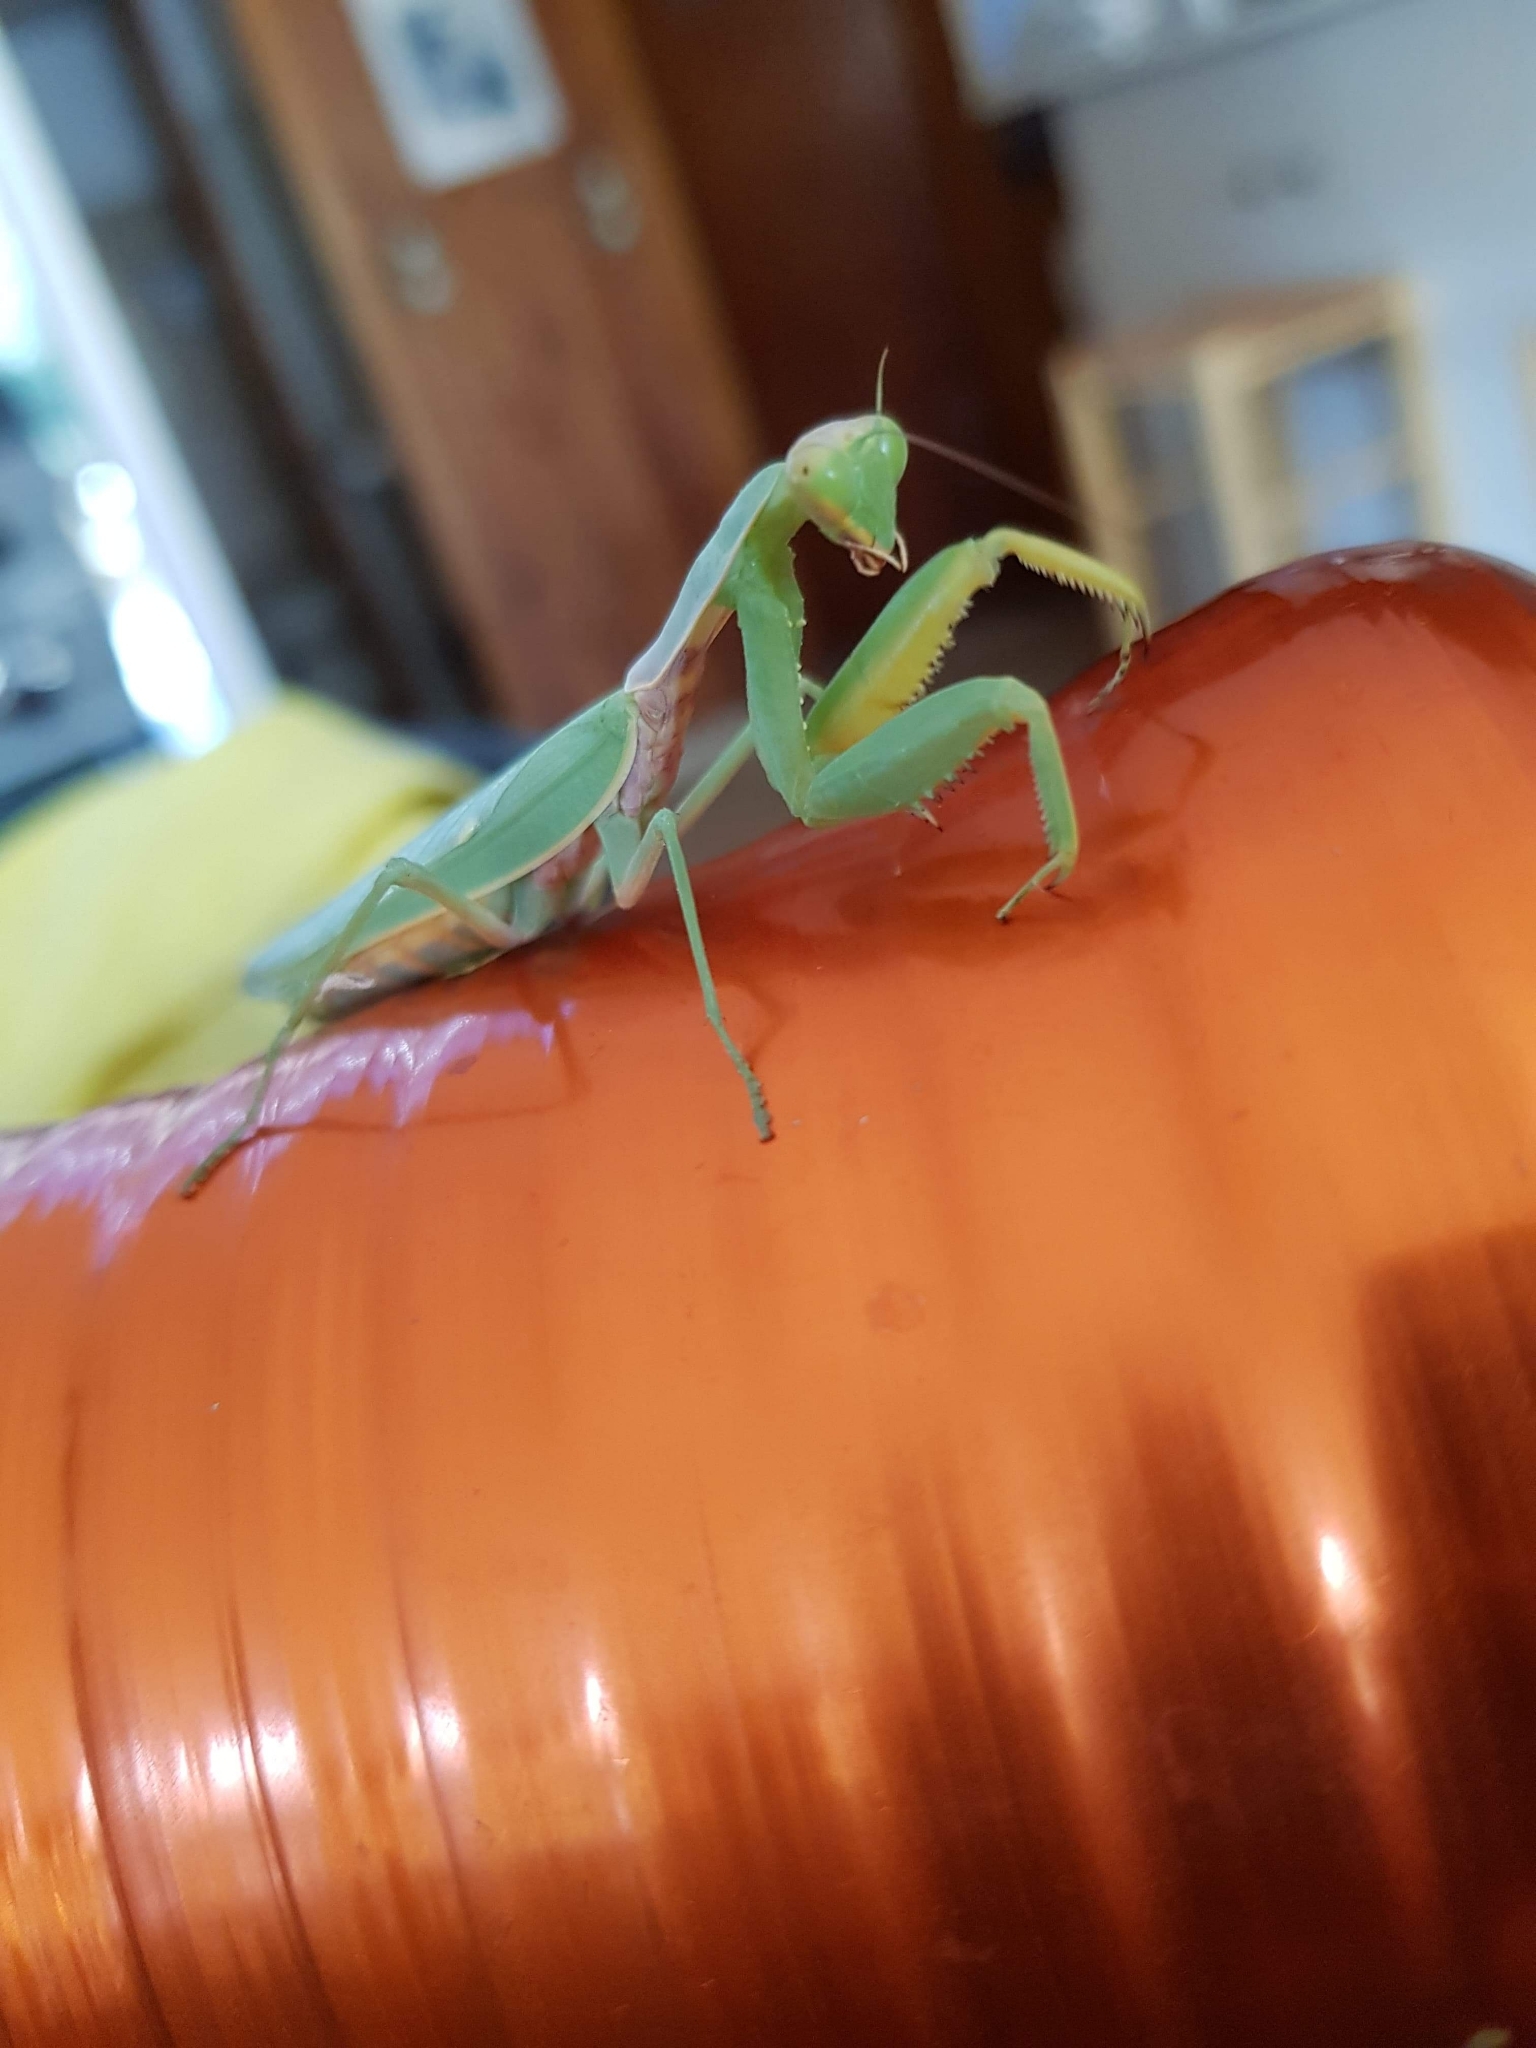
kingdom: Animalia
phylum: Arthropoda
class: Insecta
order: Mantodea
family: Mantidae
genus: Hierodula
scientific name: Hierodula transcaucasica
